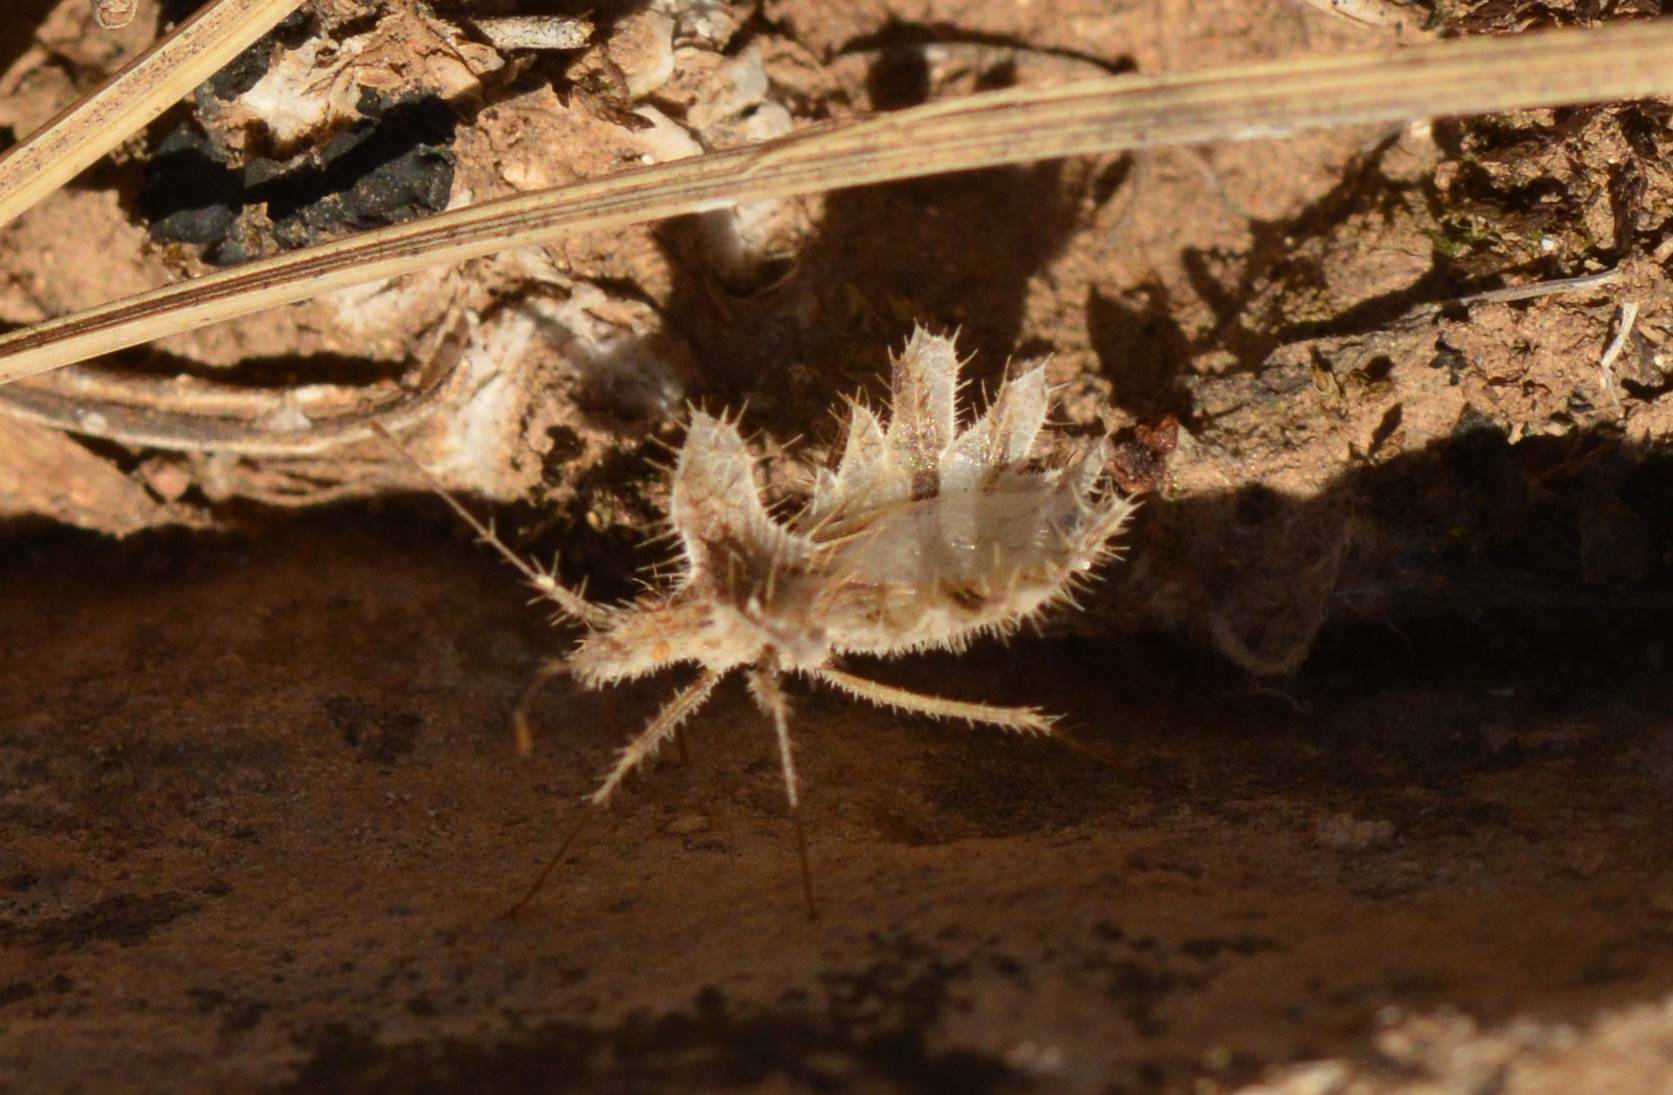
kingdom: Animalia
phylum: Arthropoda
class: Insecta
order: Hemiptera
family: Coreidae
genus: Phyllomorpha
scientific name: Phyllomorpha laciniata
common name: Golden egg bug
